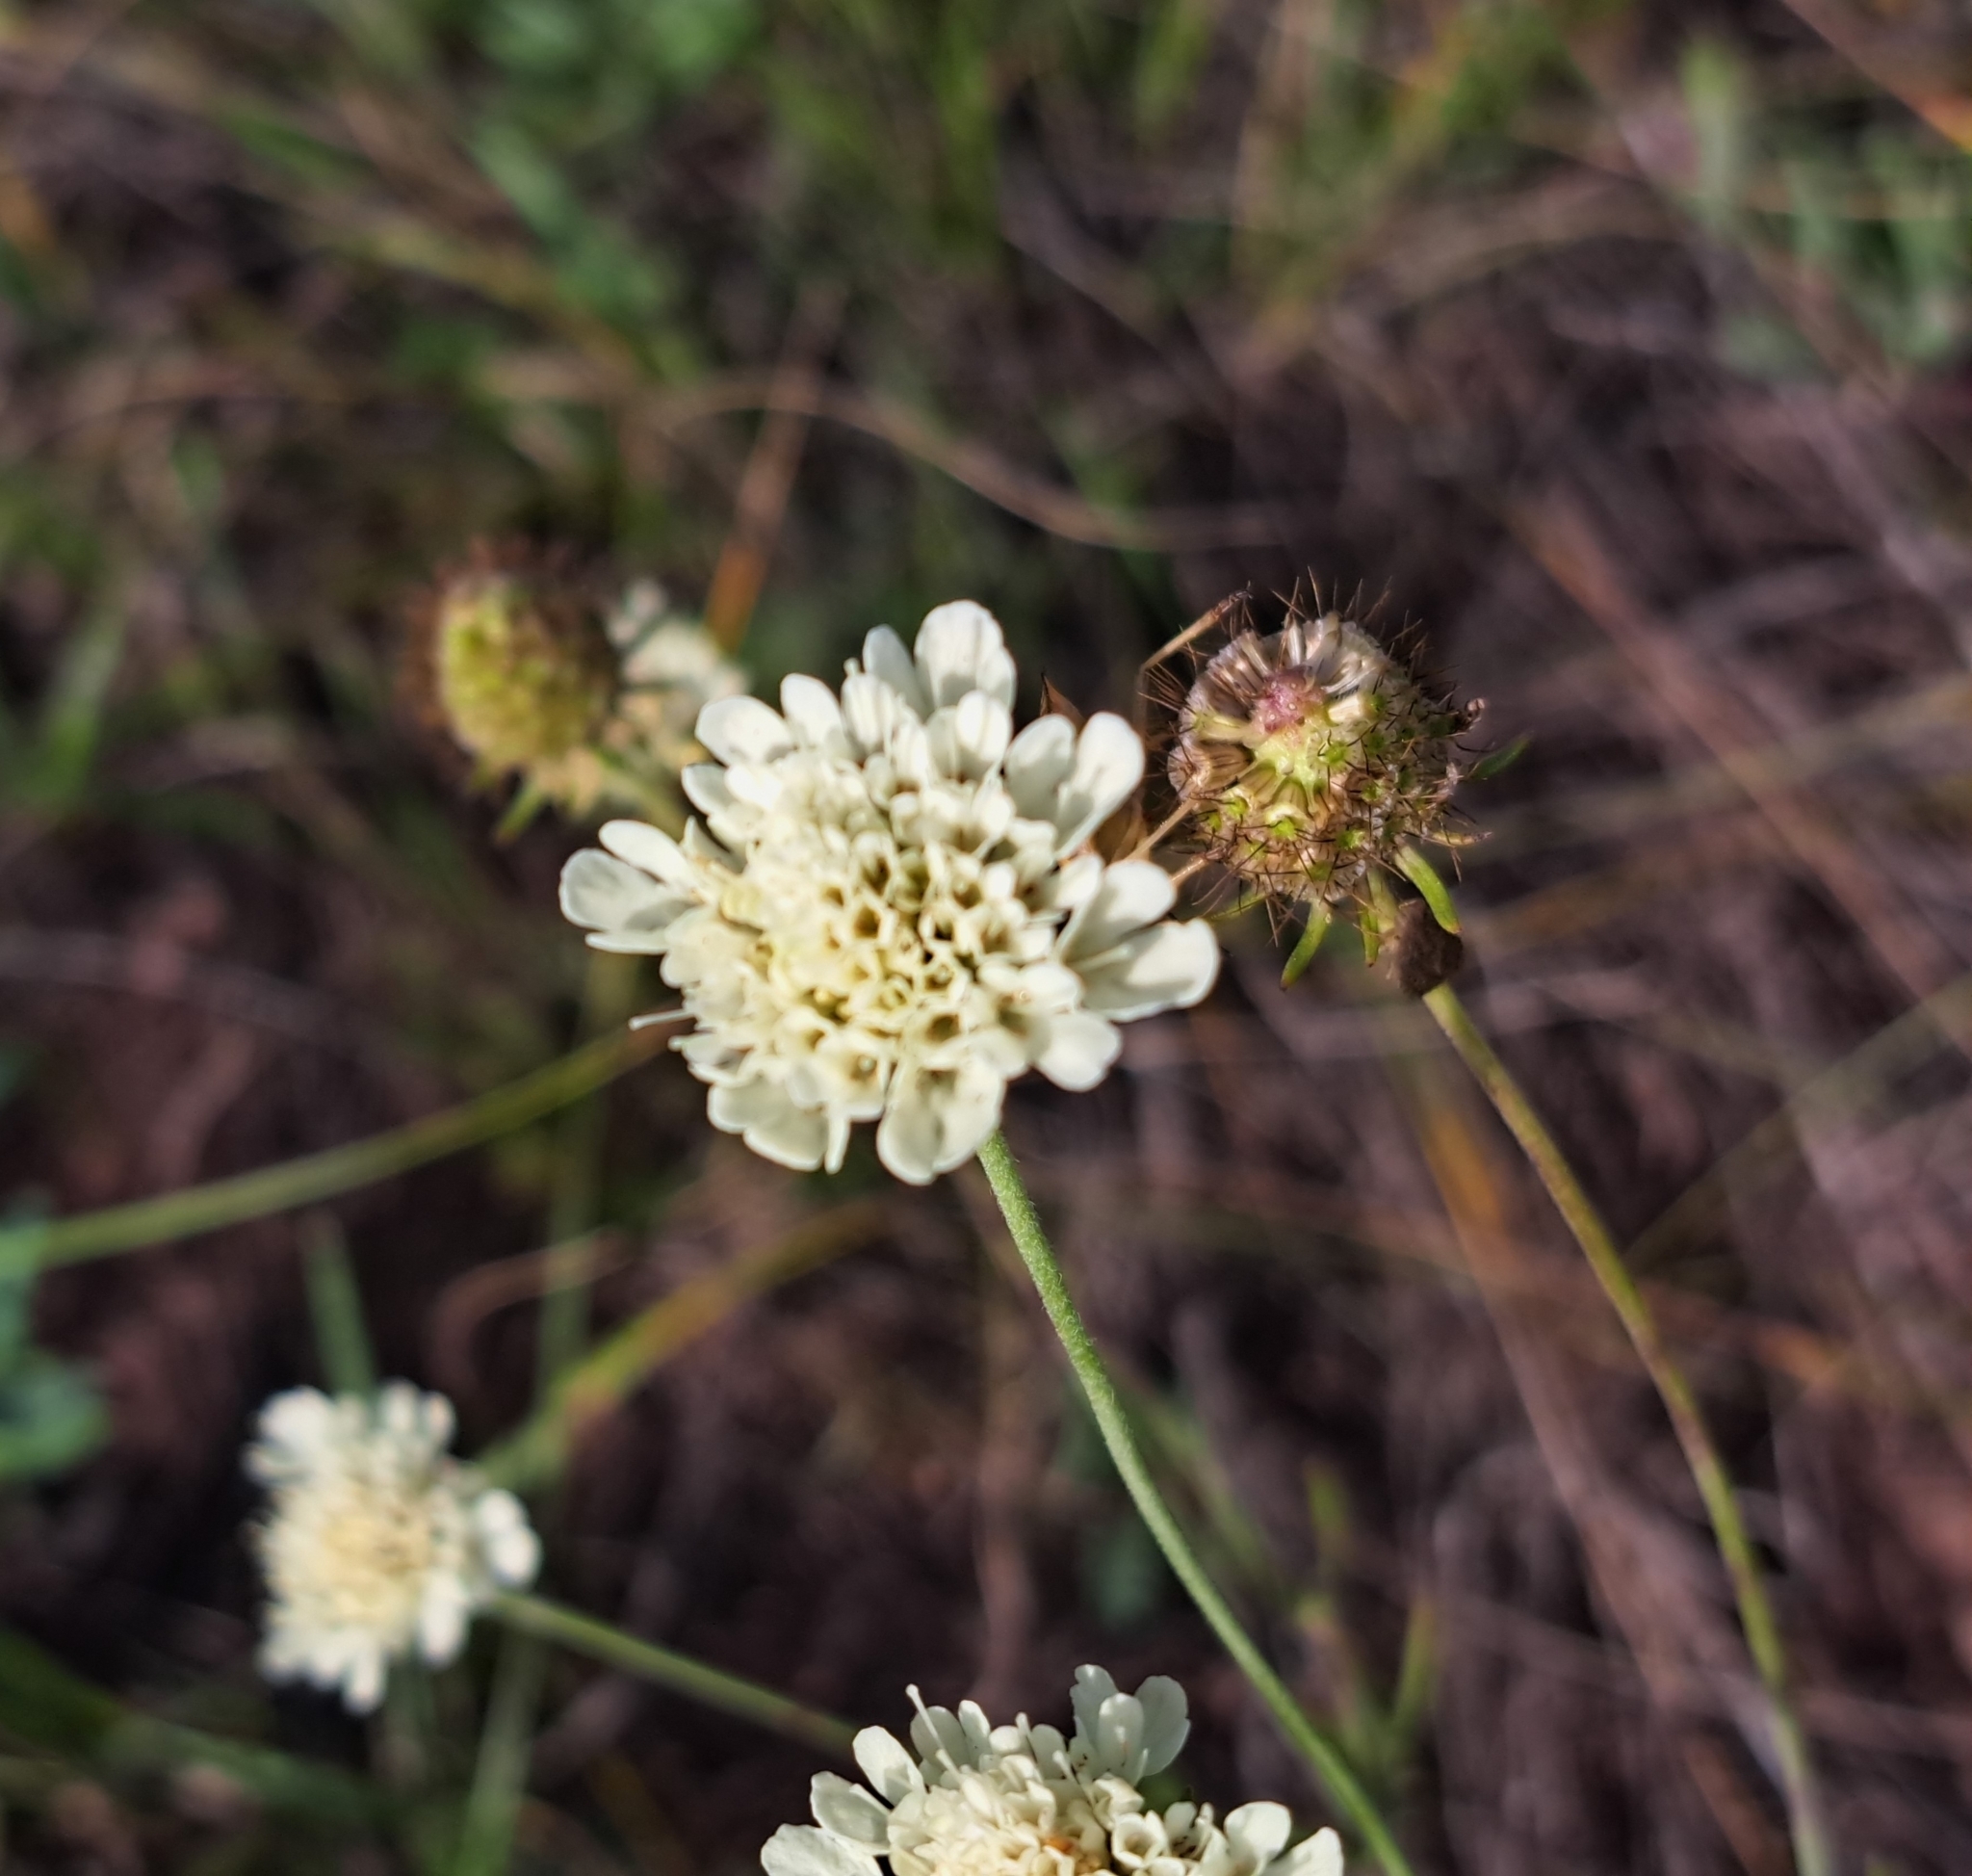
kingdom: Plantae
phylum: Tracheophyta
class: Magnoliopsida
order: Dipsacales
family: Caprifoliaceae
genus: Scabiosa
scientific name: Scabiosa ochroleuca
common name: Cream pincushions
